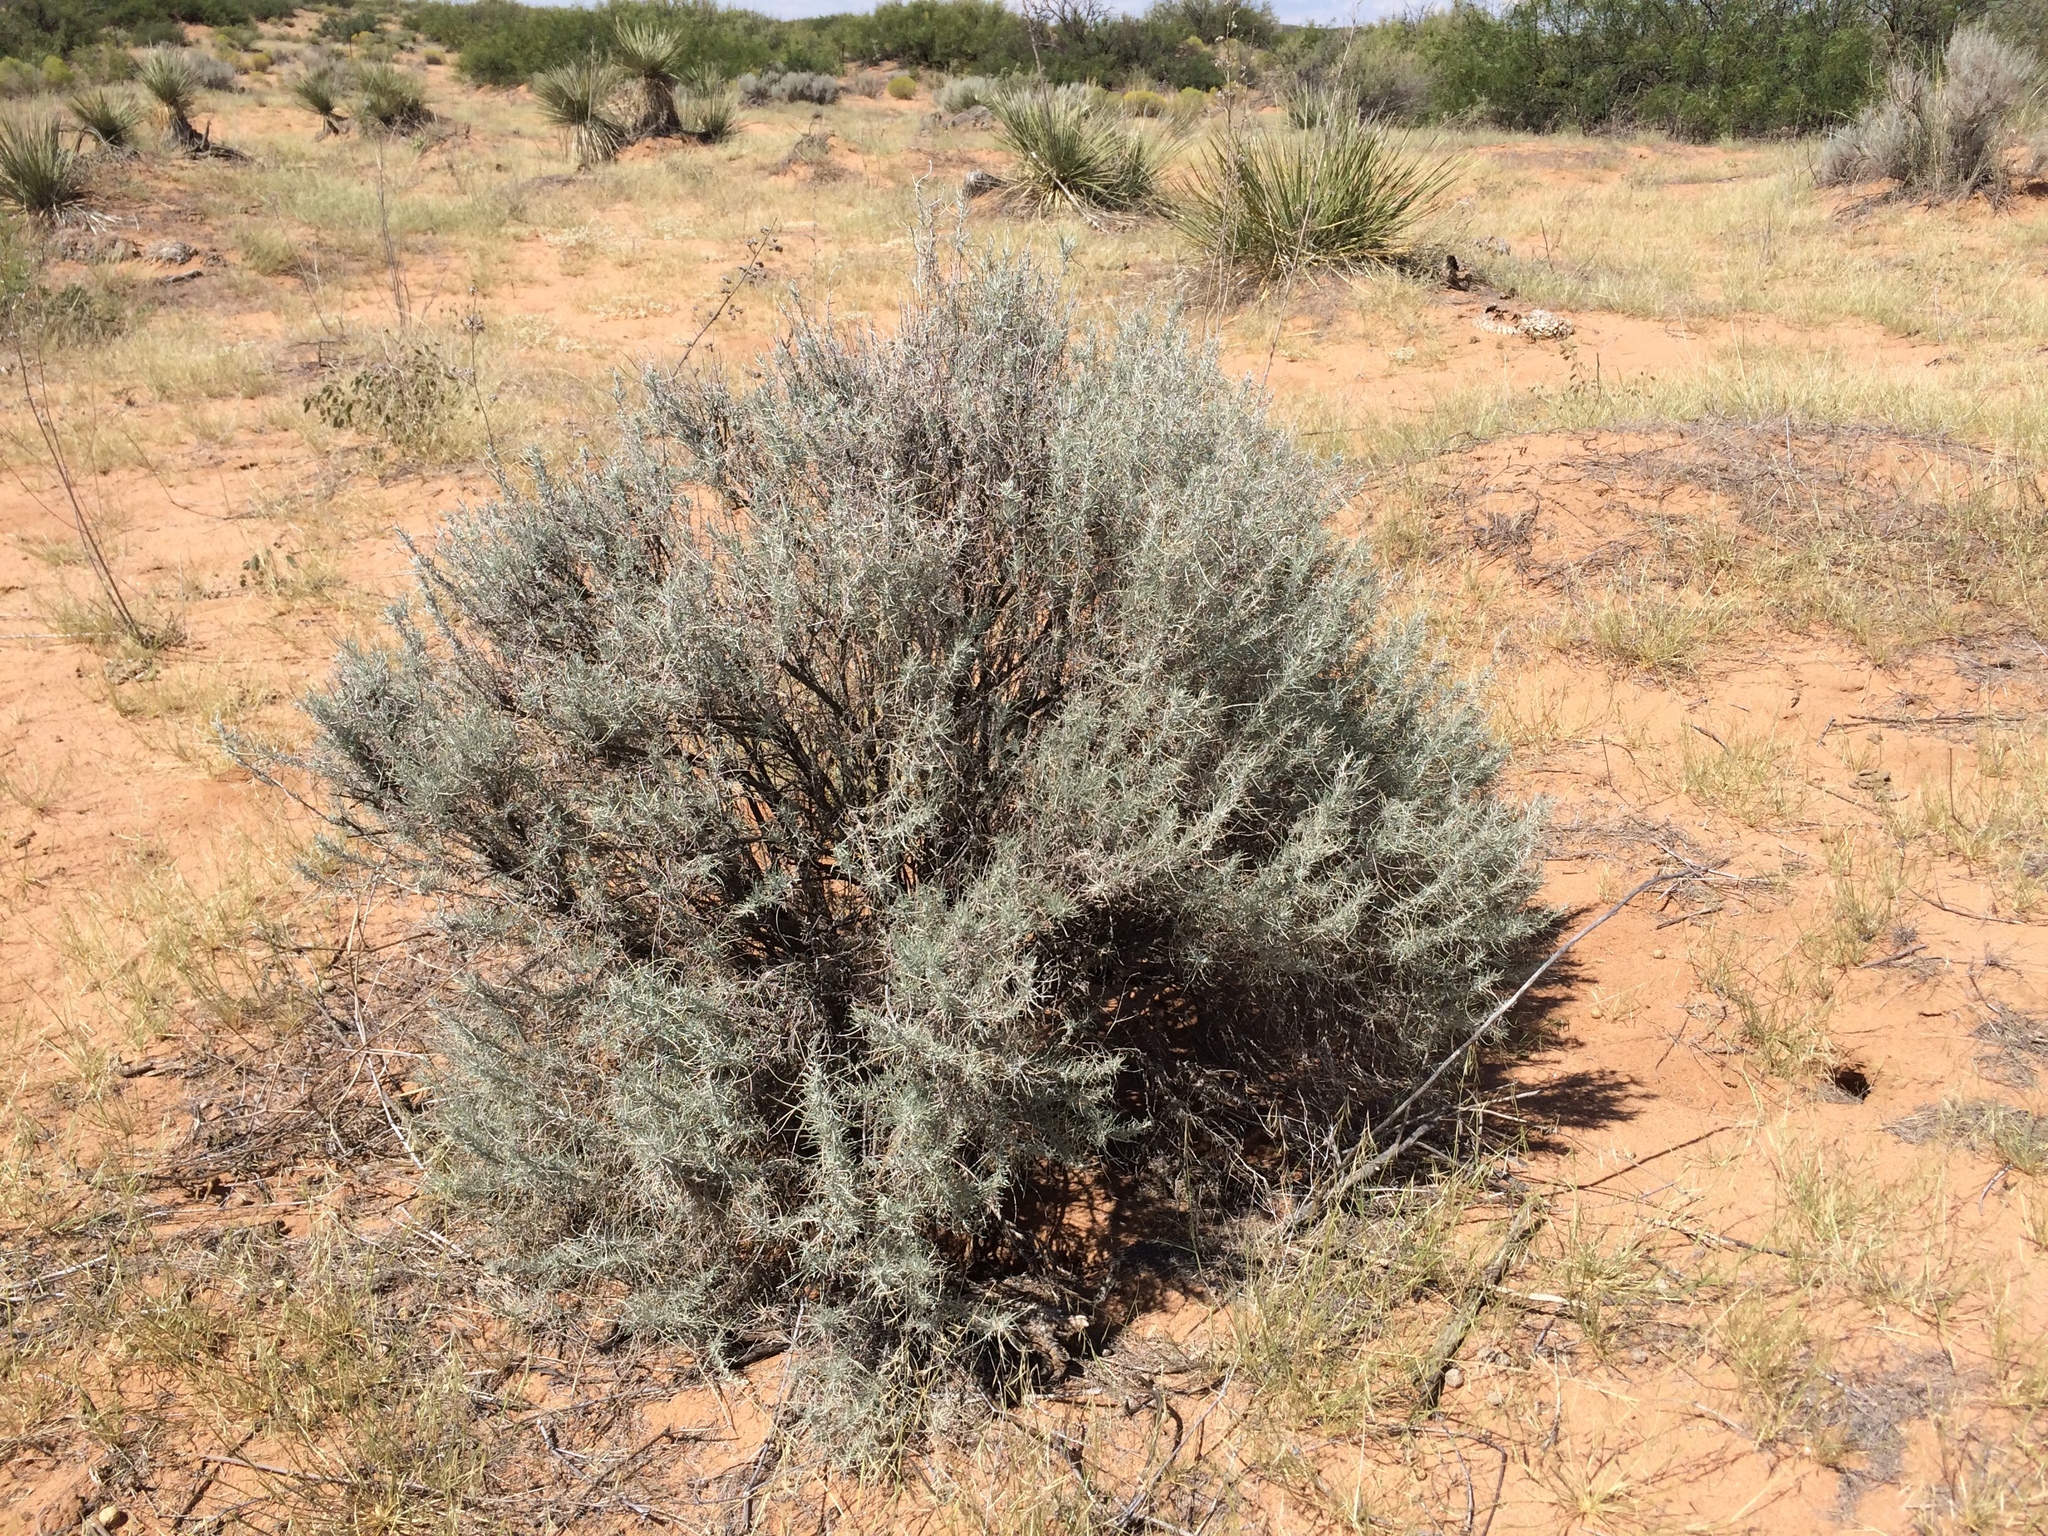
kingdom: Plantae
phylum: Tracheophyta
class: Magnoliopsida
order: Asterales
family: Asteraceae
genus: Artemisia
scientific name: Artemisia filifolia
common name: Sand-sage
